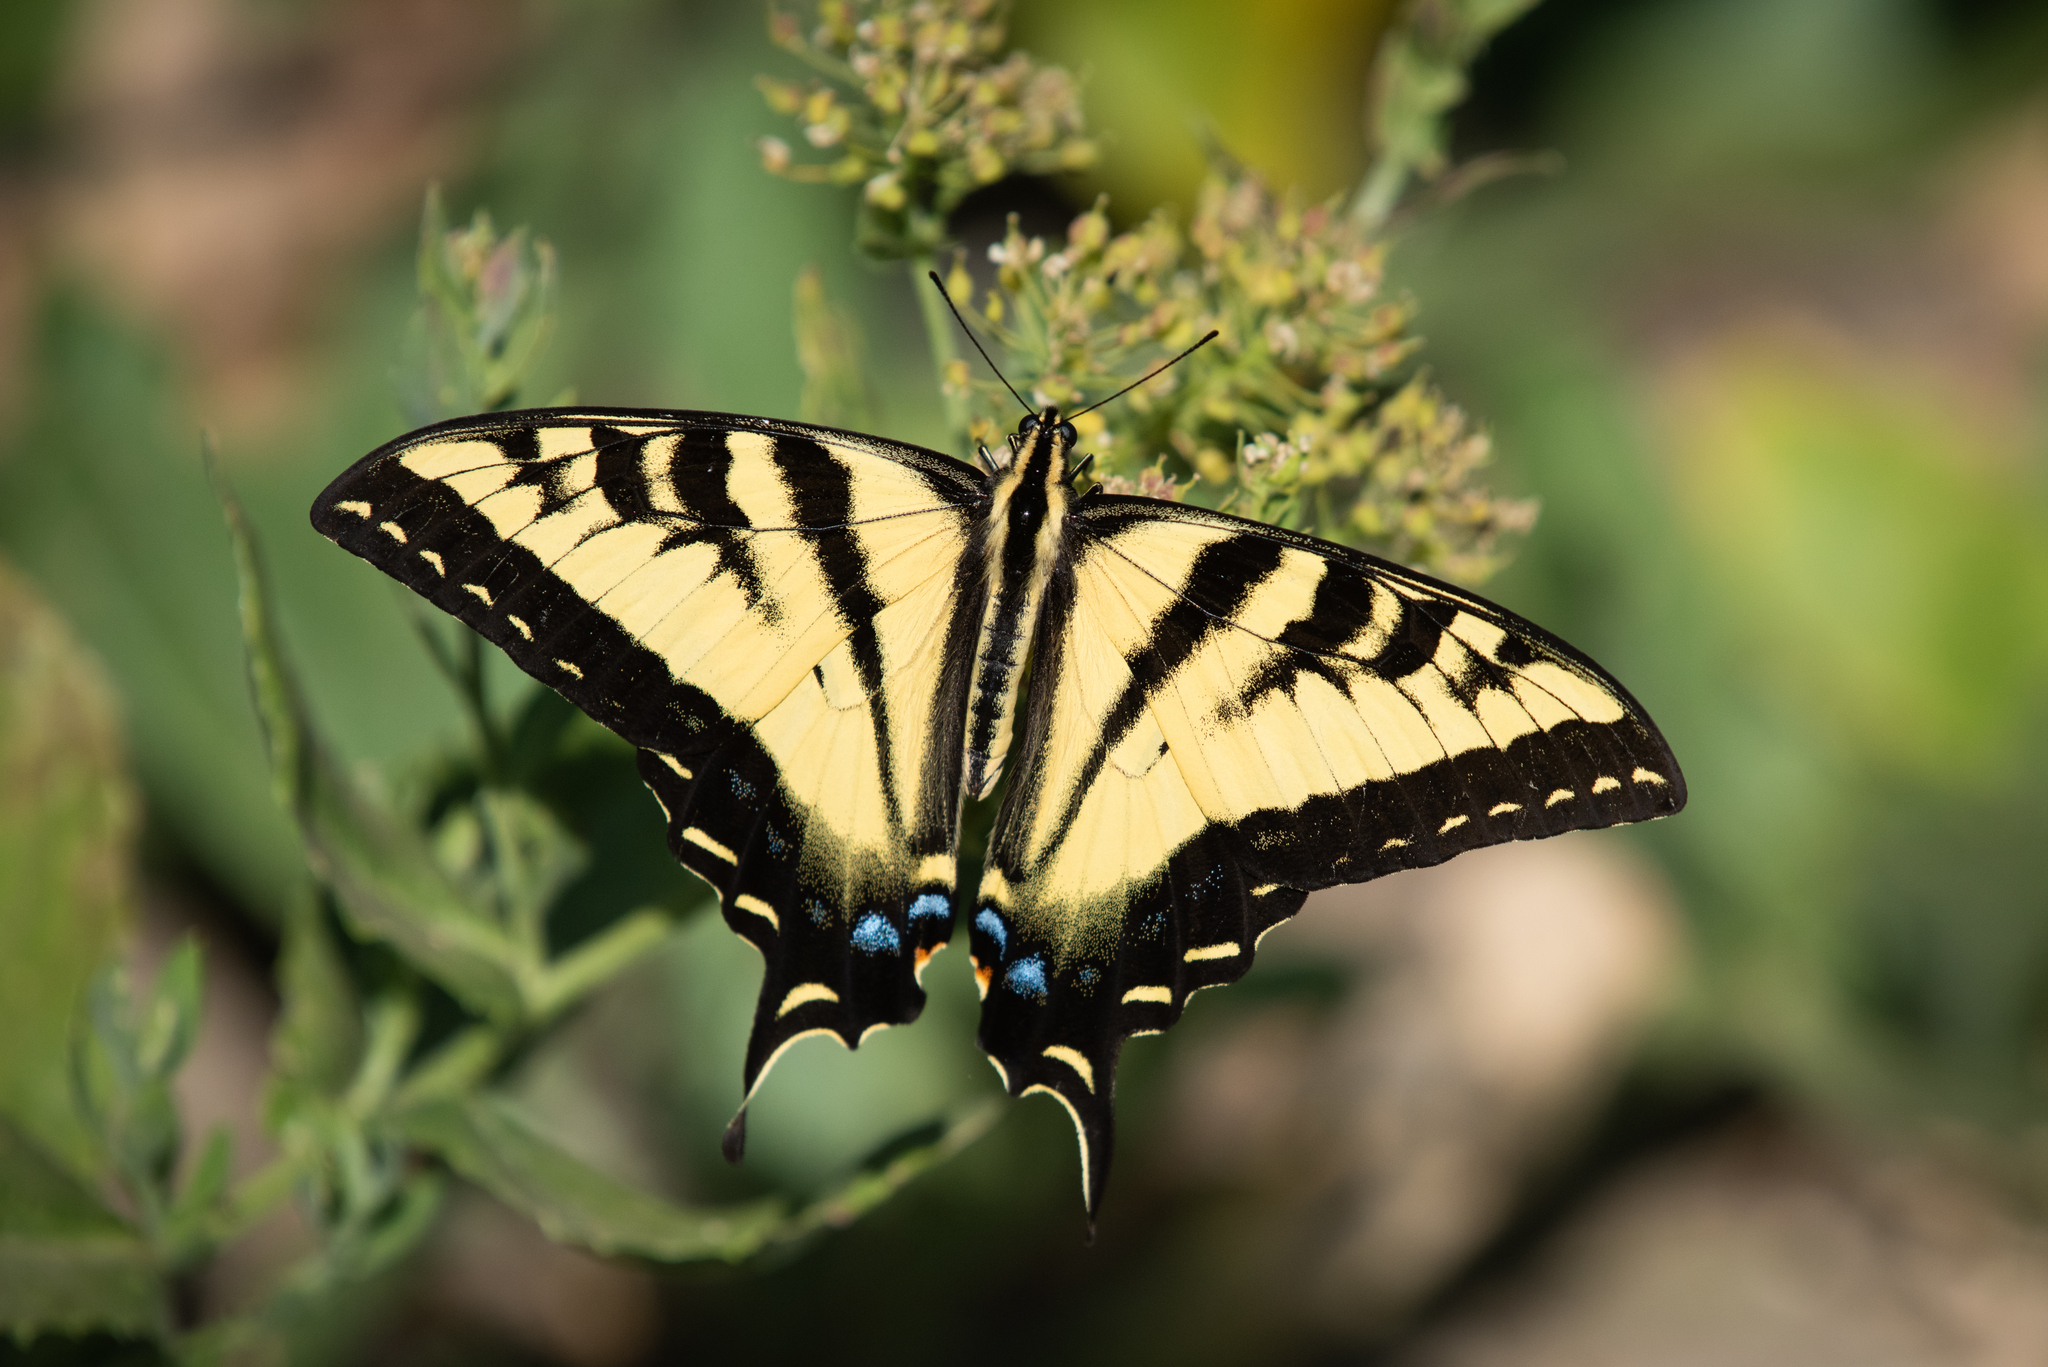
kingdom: Animalia
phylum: Arthropoda
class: Insecta
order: Lepidoptera
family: Papilionidae
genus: Papilio
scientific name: Papilio rutulus
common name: Western tiger swallowtail
